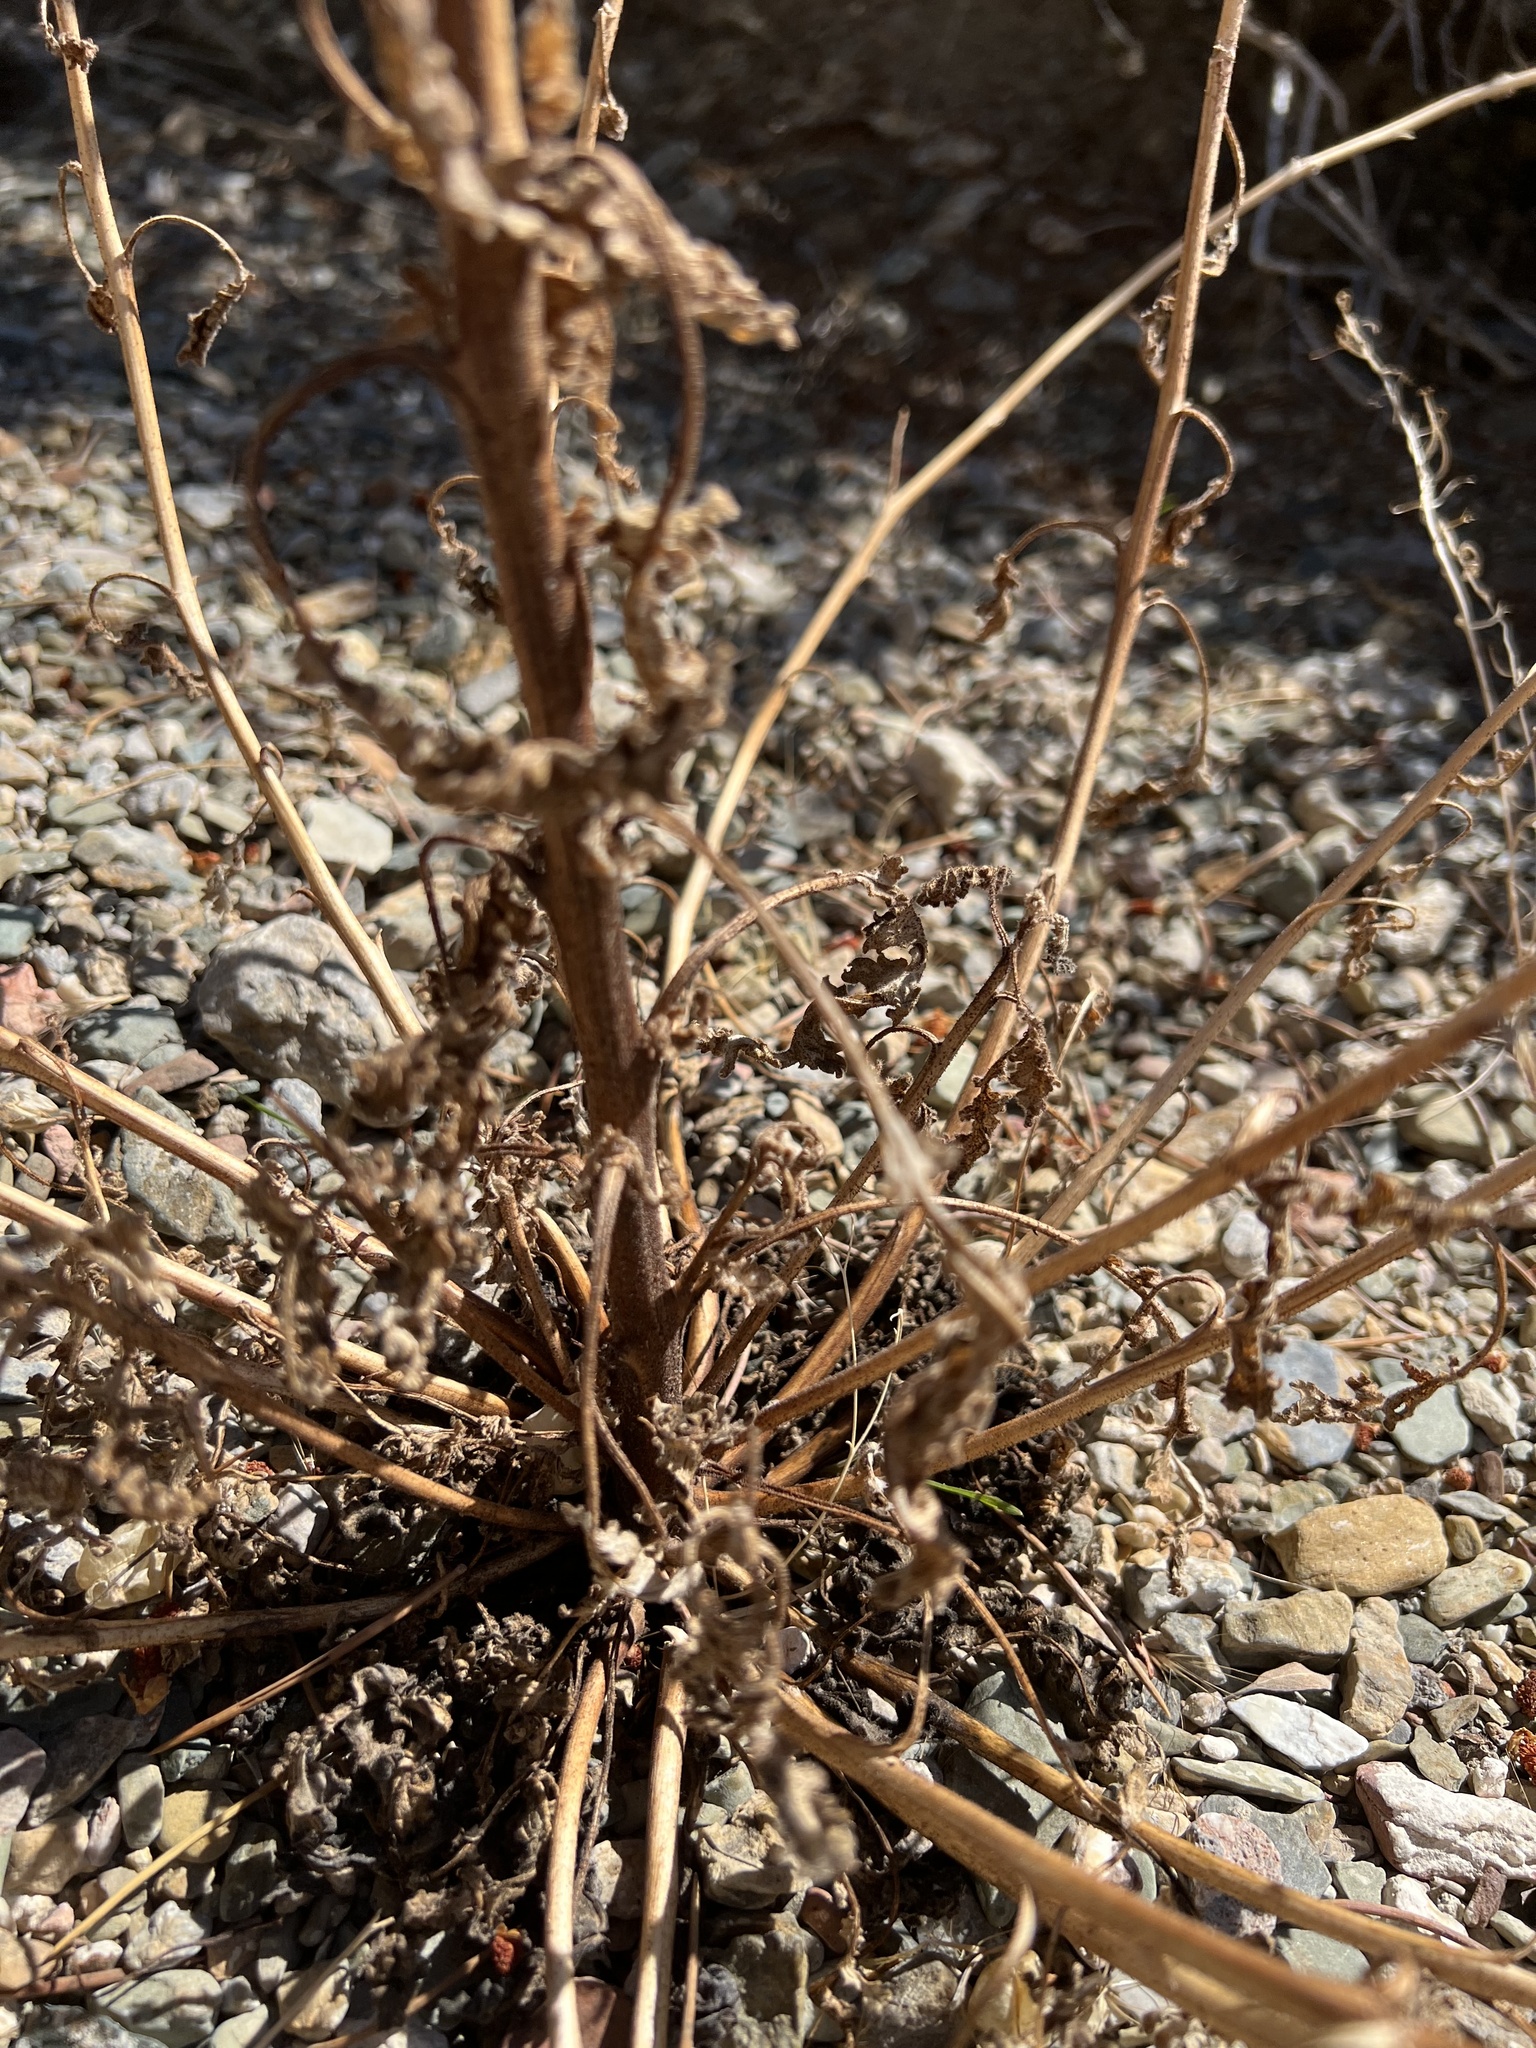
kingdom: Plantae
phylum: Tracheophyta
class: Magnoliopsida
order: Boraginales
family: Hydrophyllaceae
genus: Phacelia
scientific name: Phacelia crenulata
